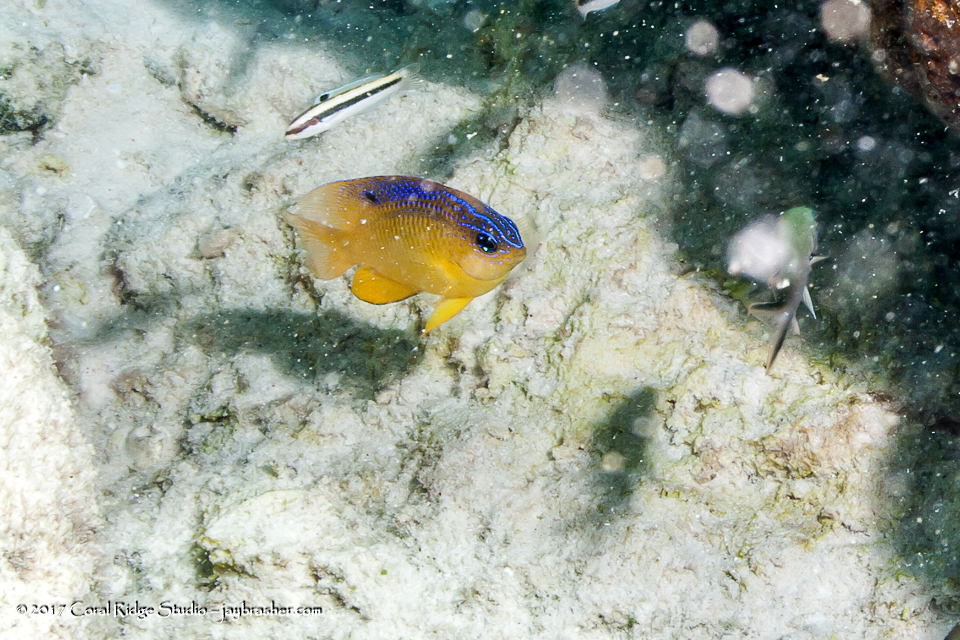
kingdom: Animalia
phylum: Chordata
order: Perciformes
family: Pomacentridae
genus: Stegastes
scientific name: Stegastes diencaeus
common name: Longfin damselfish
